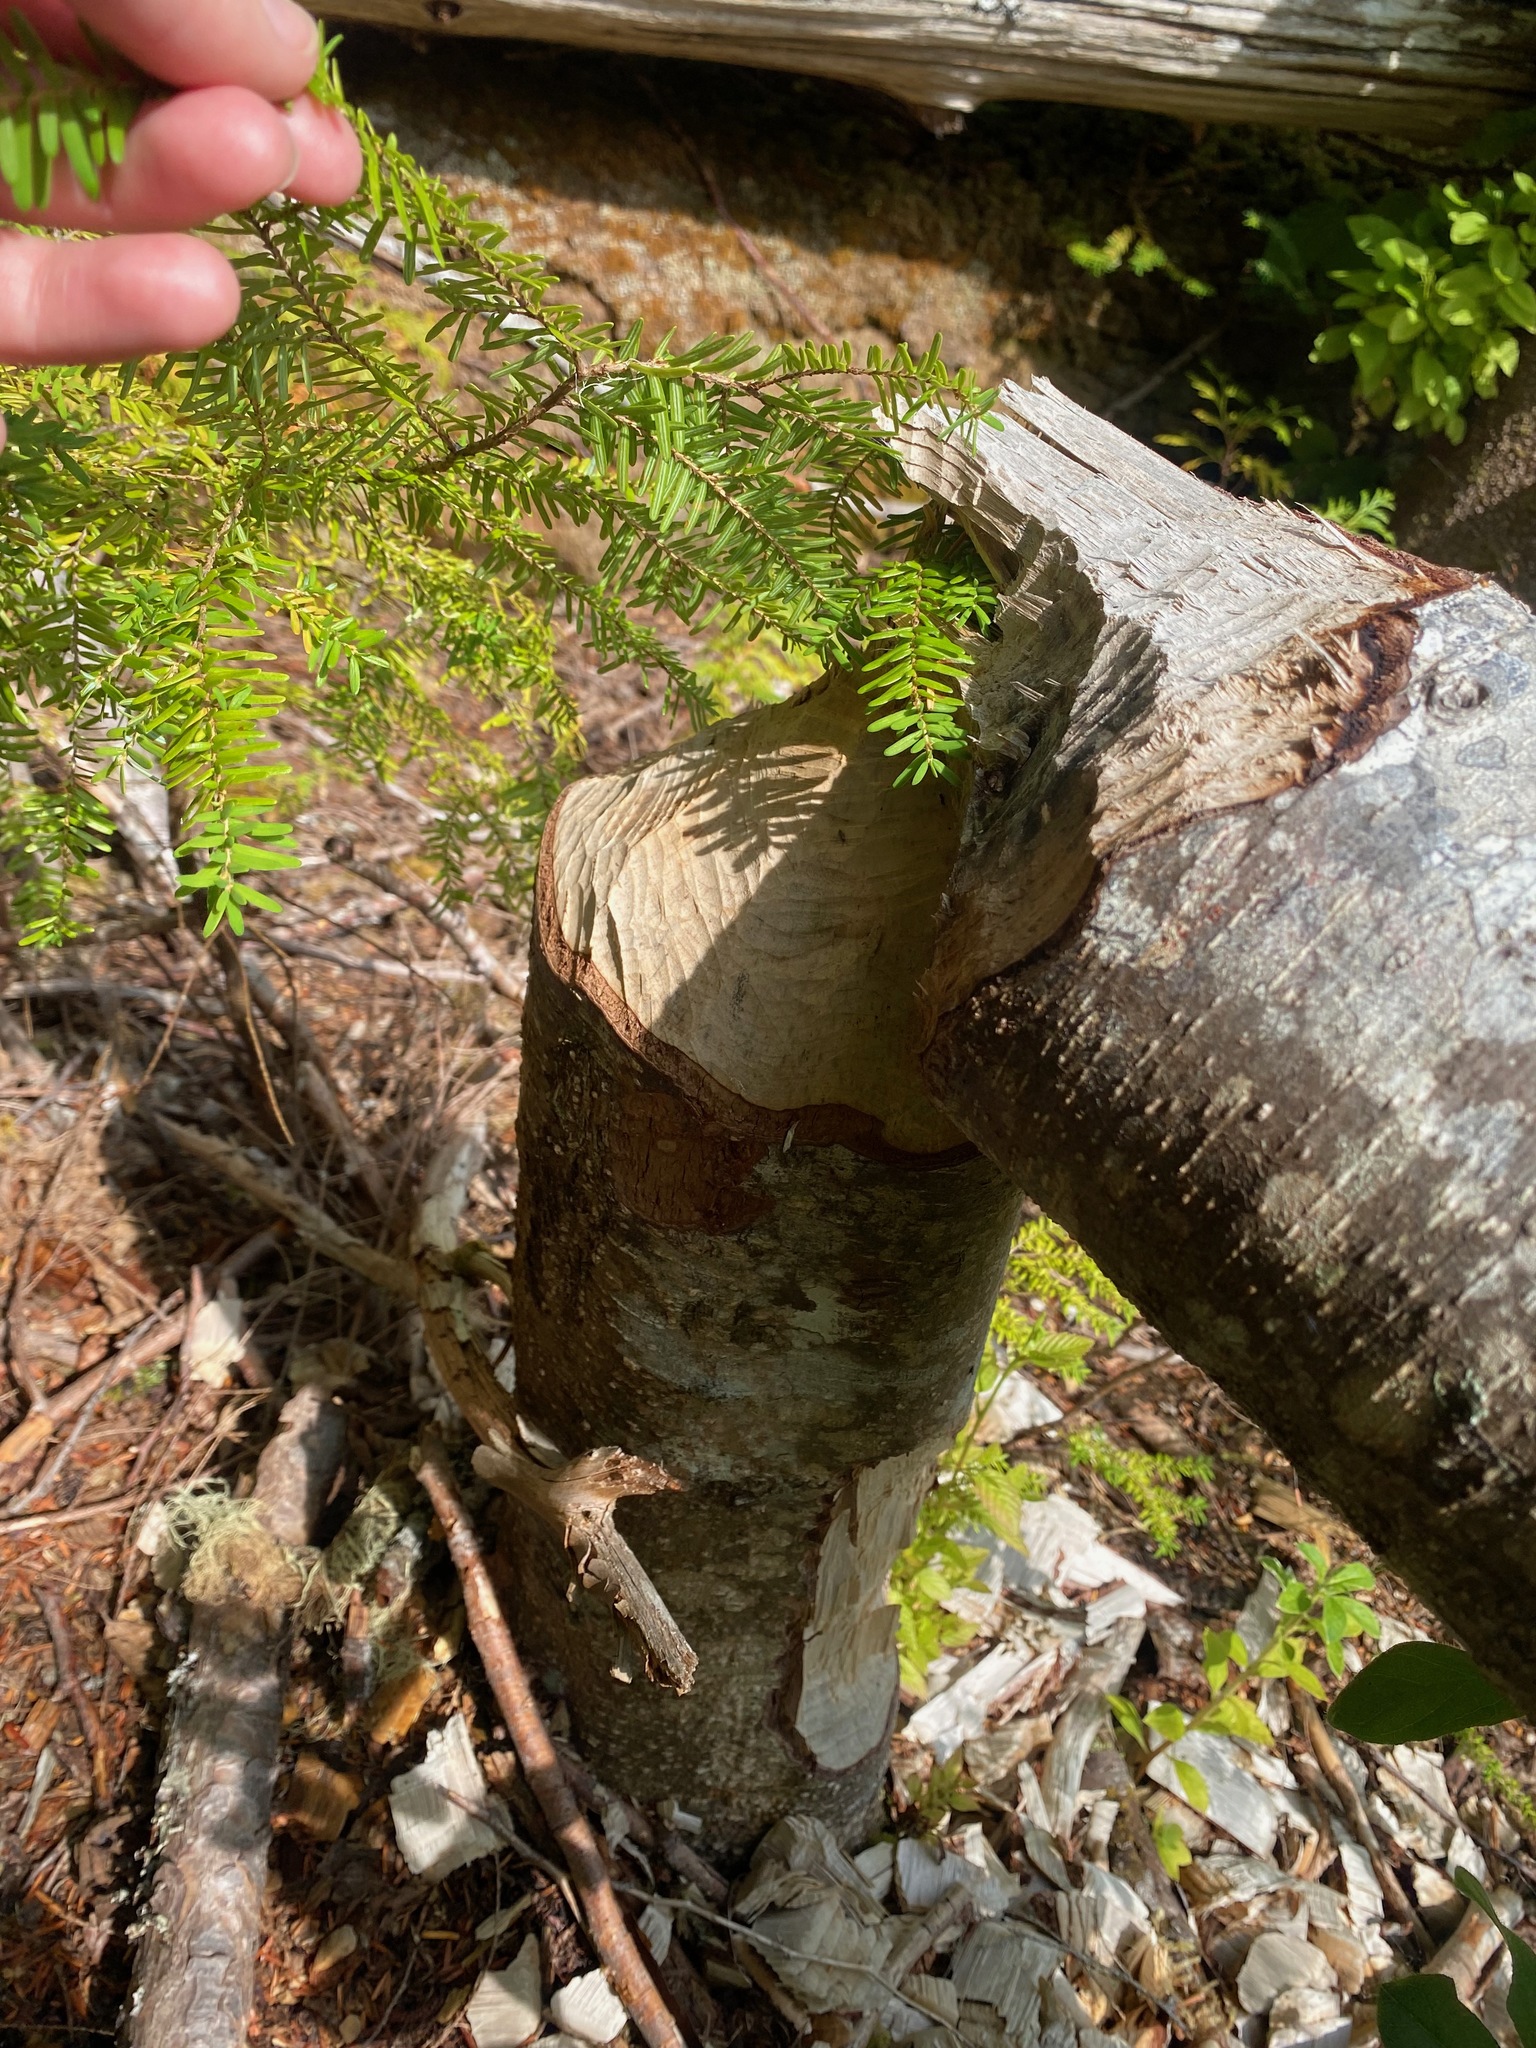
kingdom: Animalia
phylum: Chordata
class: Mammalia
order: Rodentia
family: Castoridae
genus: Castor
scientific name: Castor canadensis
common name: American beaver
